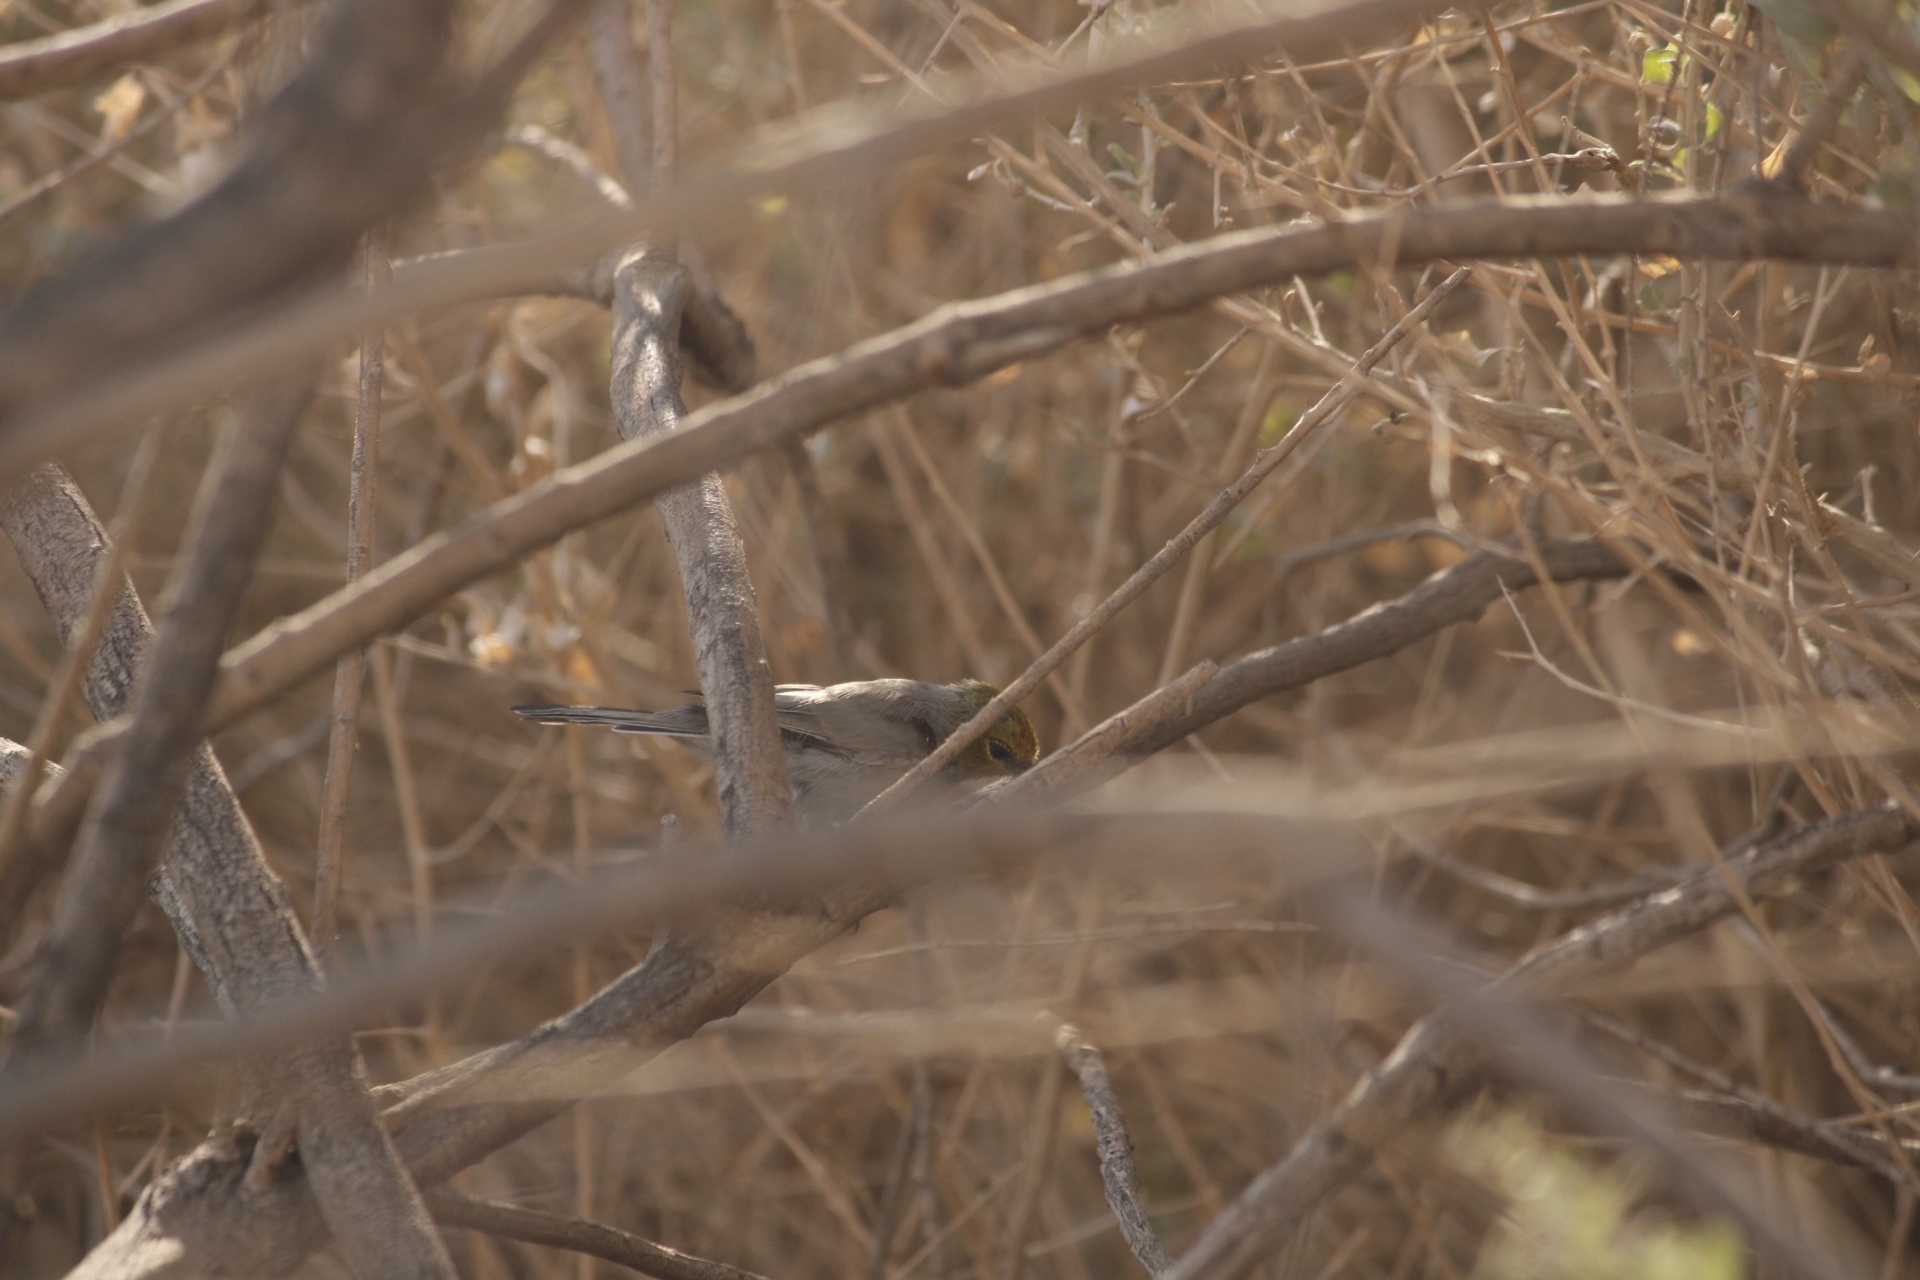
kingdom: Animalia
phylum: Chordata
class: Aves
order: Passeriformes
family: Remizidae
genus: Auriparus
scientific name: Auriparus flaviceps
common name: Verdin
